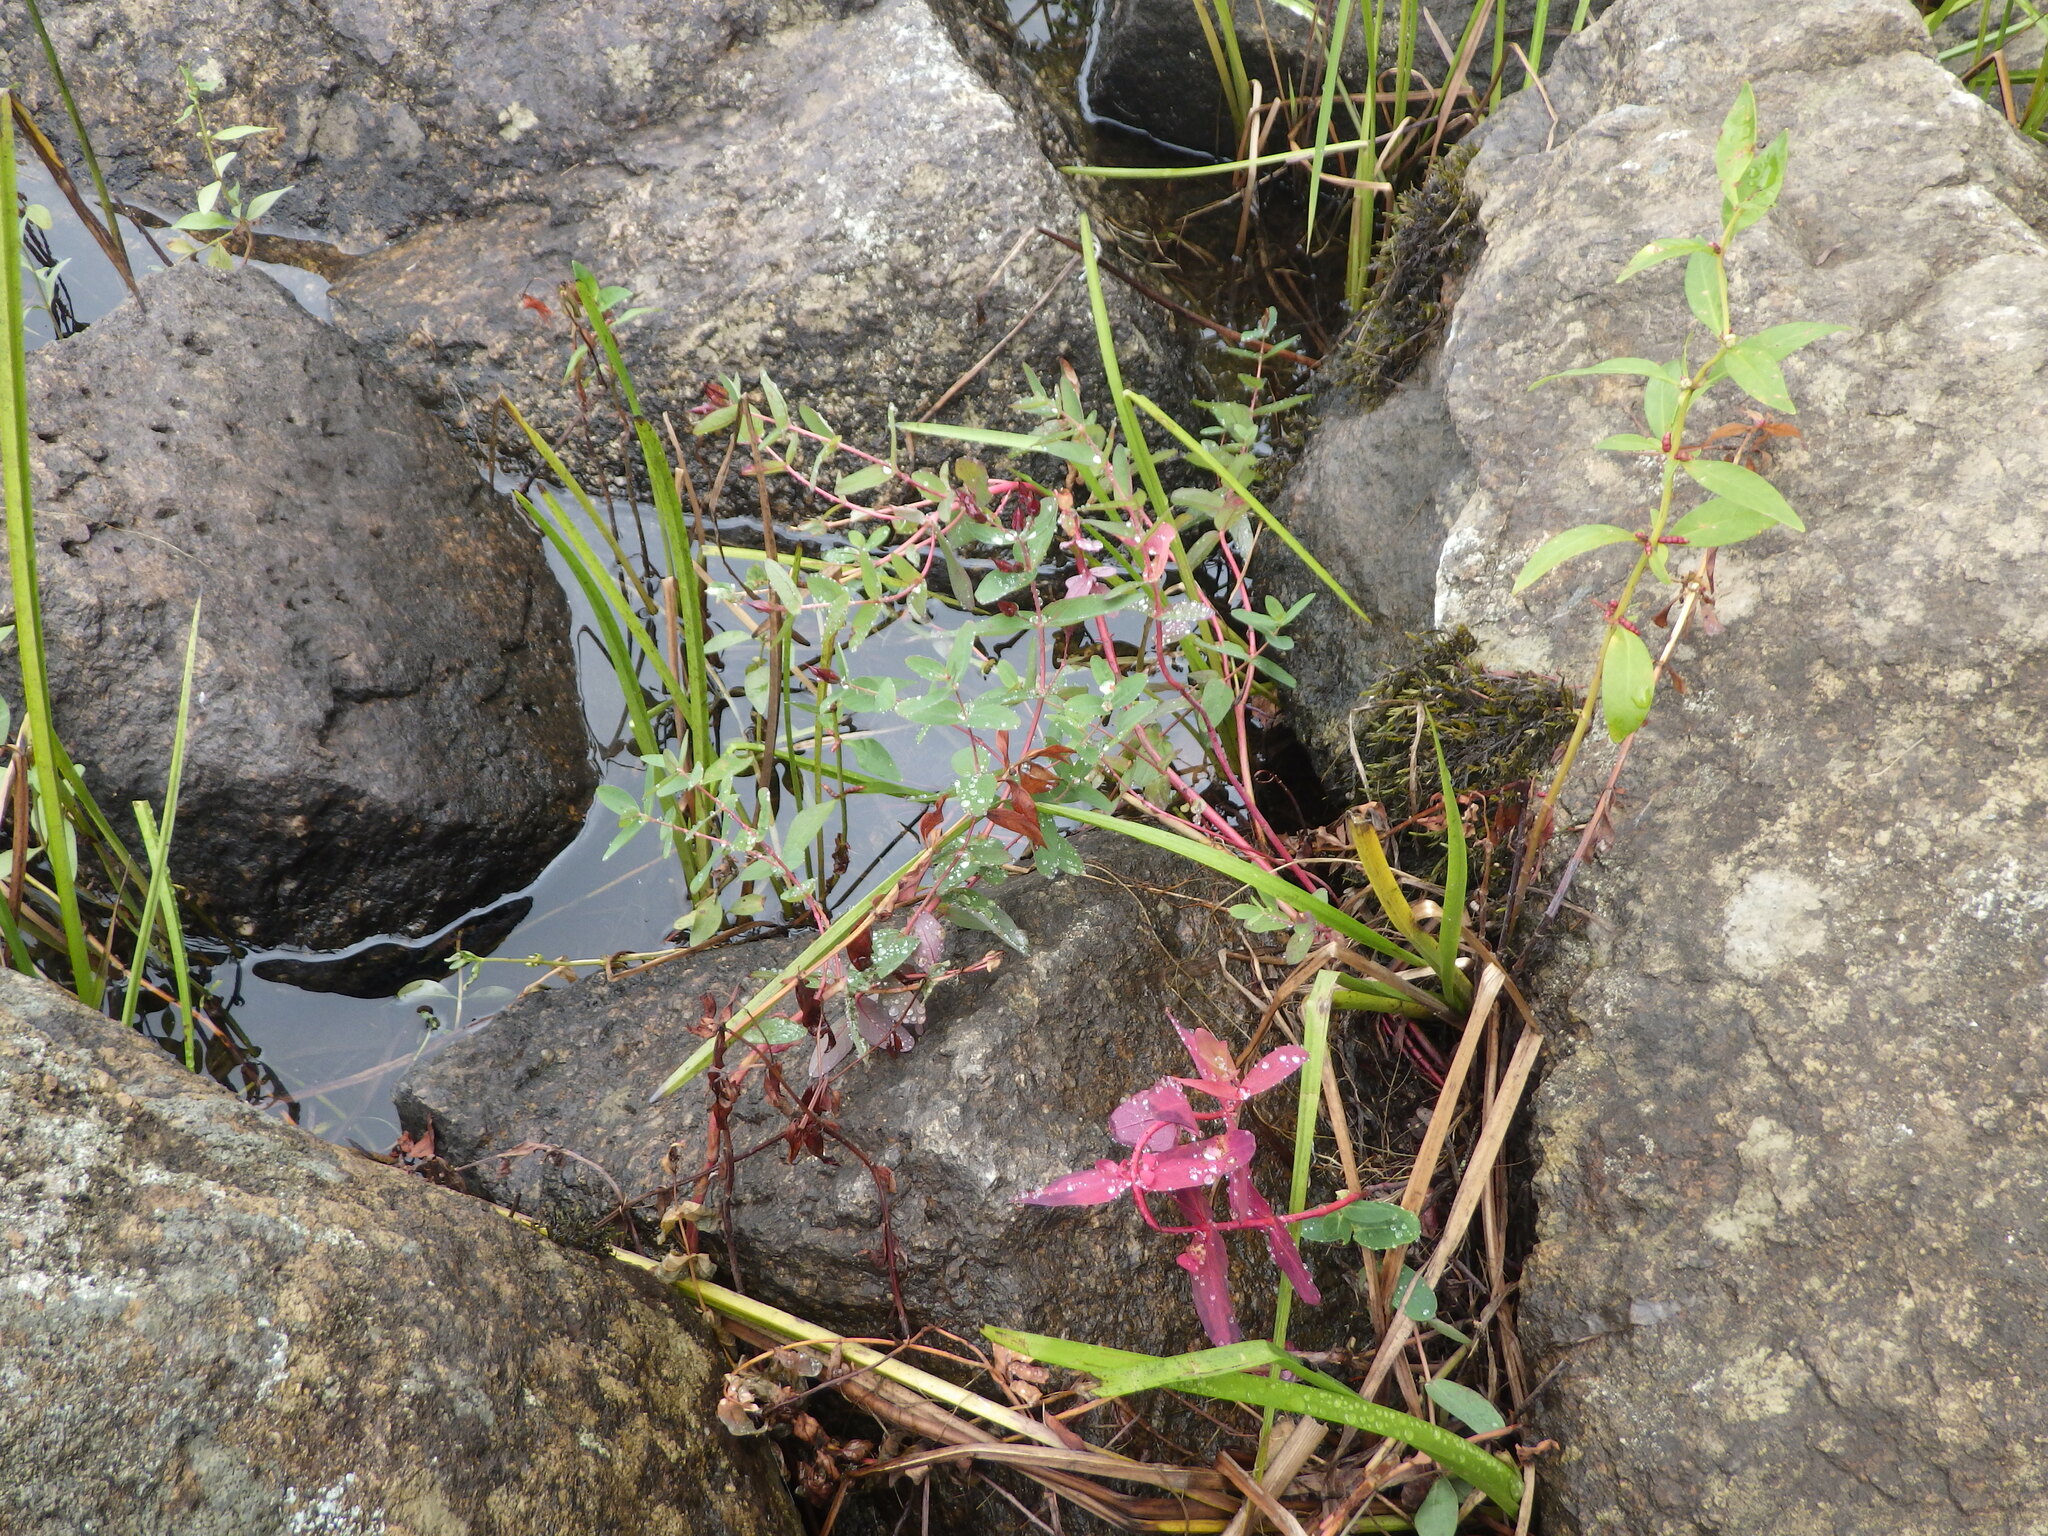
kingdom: Plantae
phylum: Tracheophyta
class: Magnoliopsida
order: Malpighiales
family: Hypericaceae
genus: Triadenum
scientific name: Triadenum virginicum
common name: Marsh st. john's-wort
